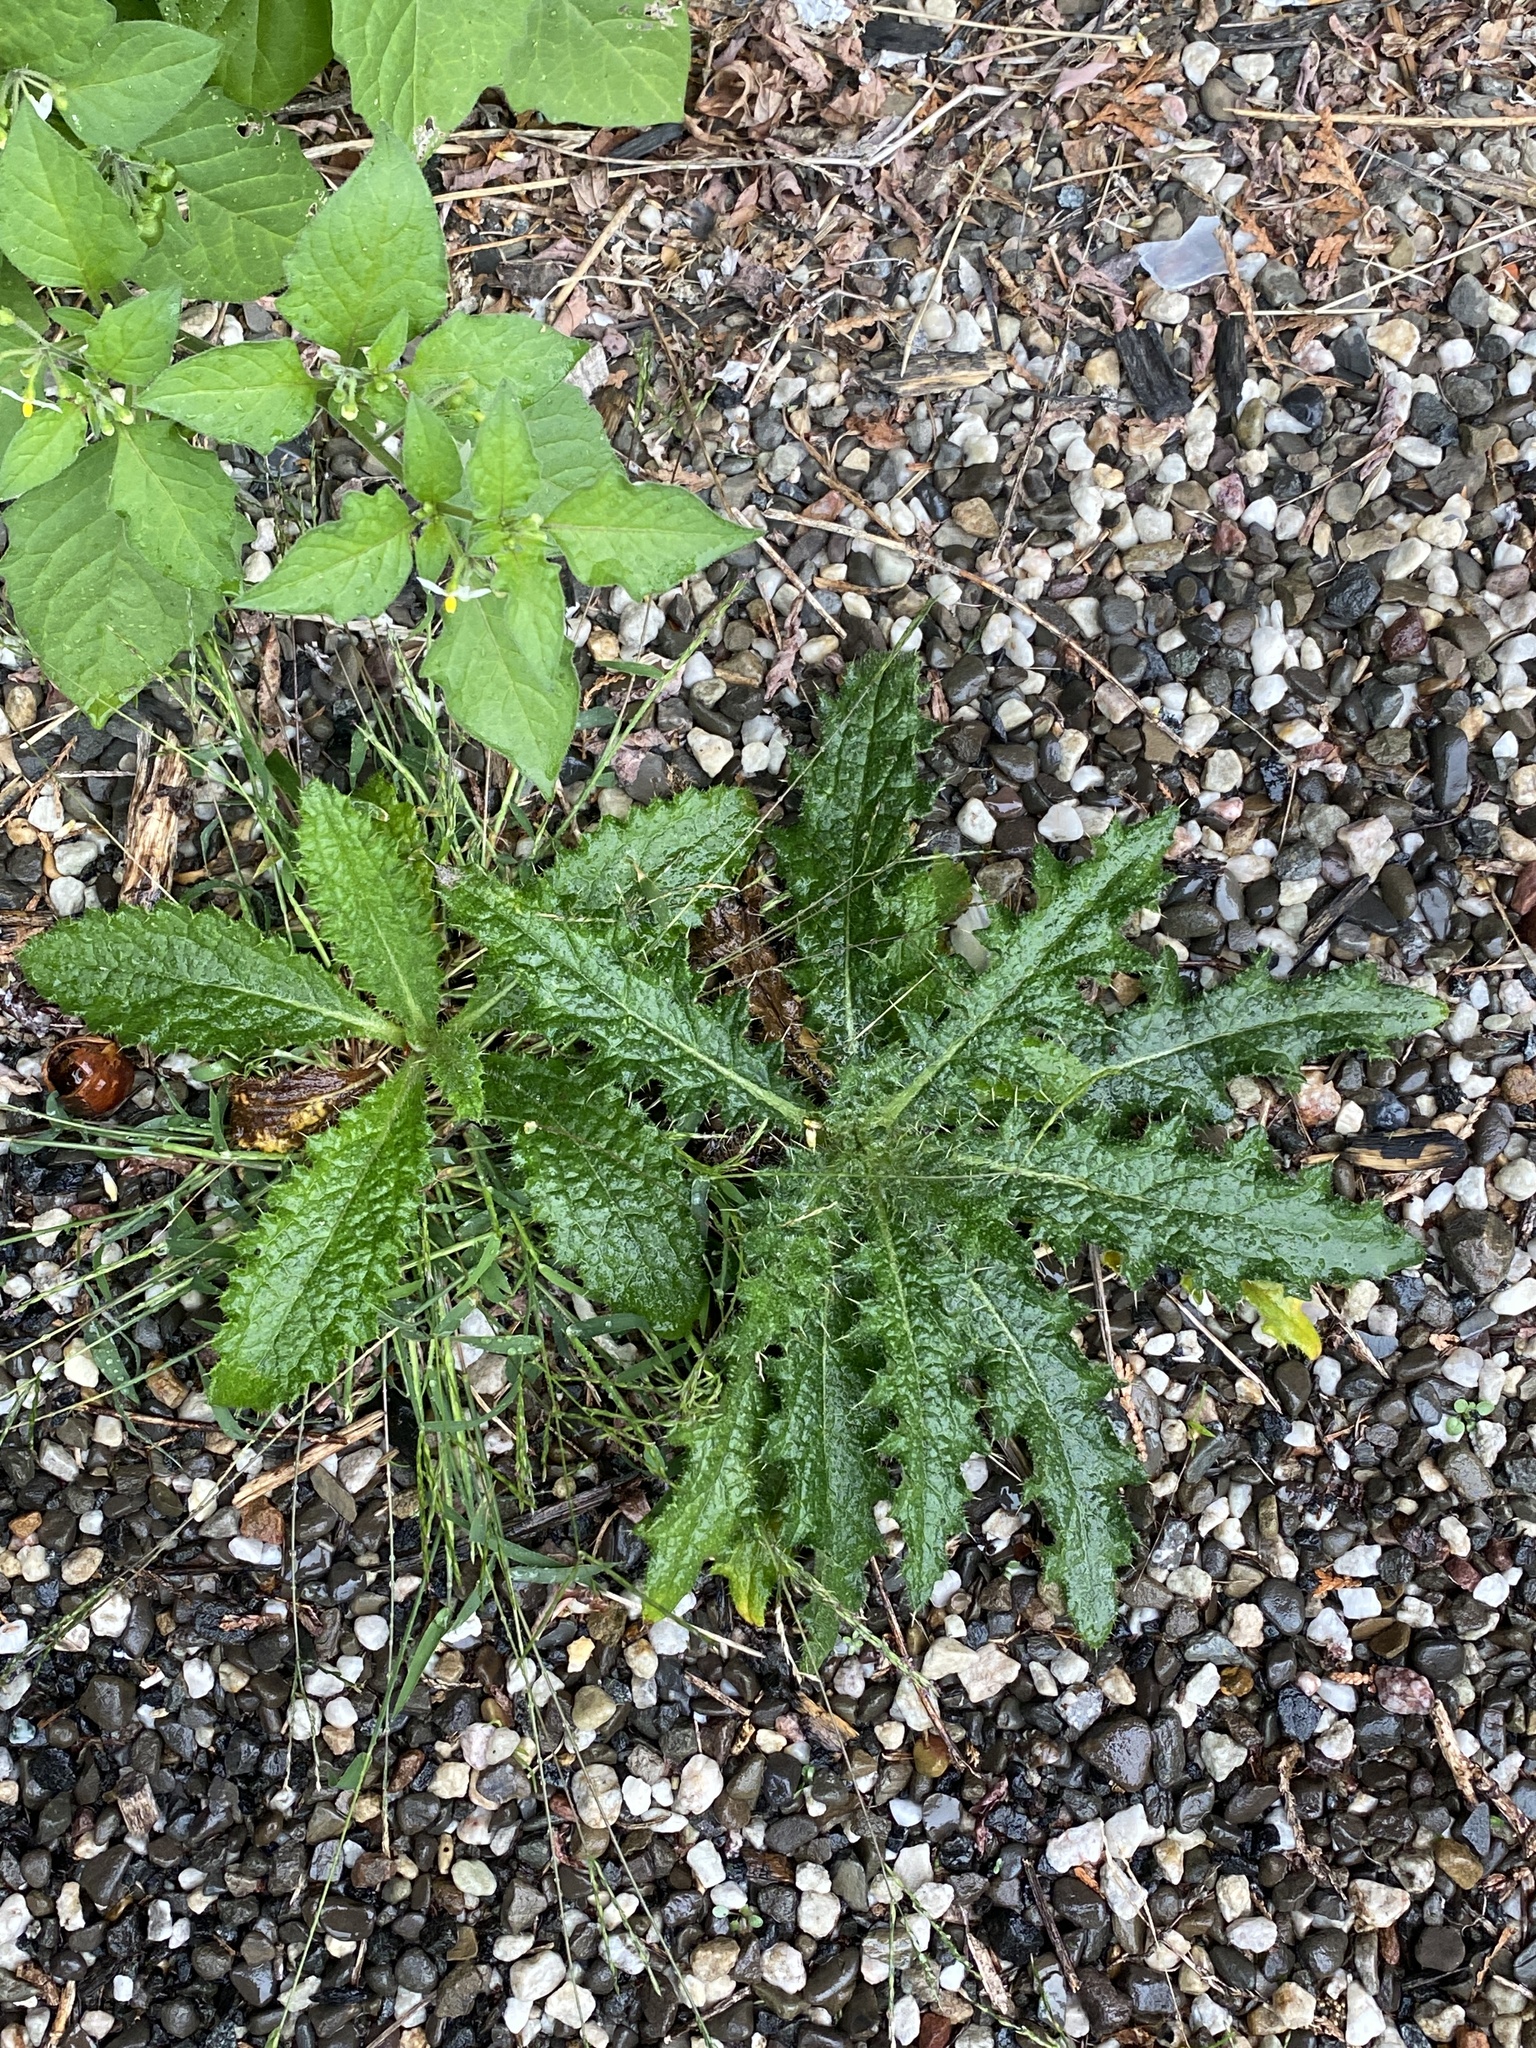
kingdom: Plantae
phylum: Tracheophyta
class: Magnoliopsida
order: Asterales
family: Asteraceae
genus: Cirsium
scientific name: Cirsium vulgare
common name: Bull thistle
